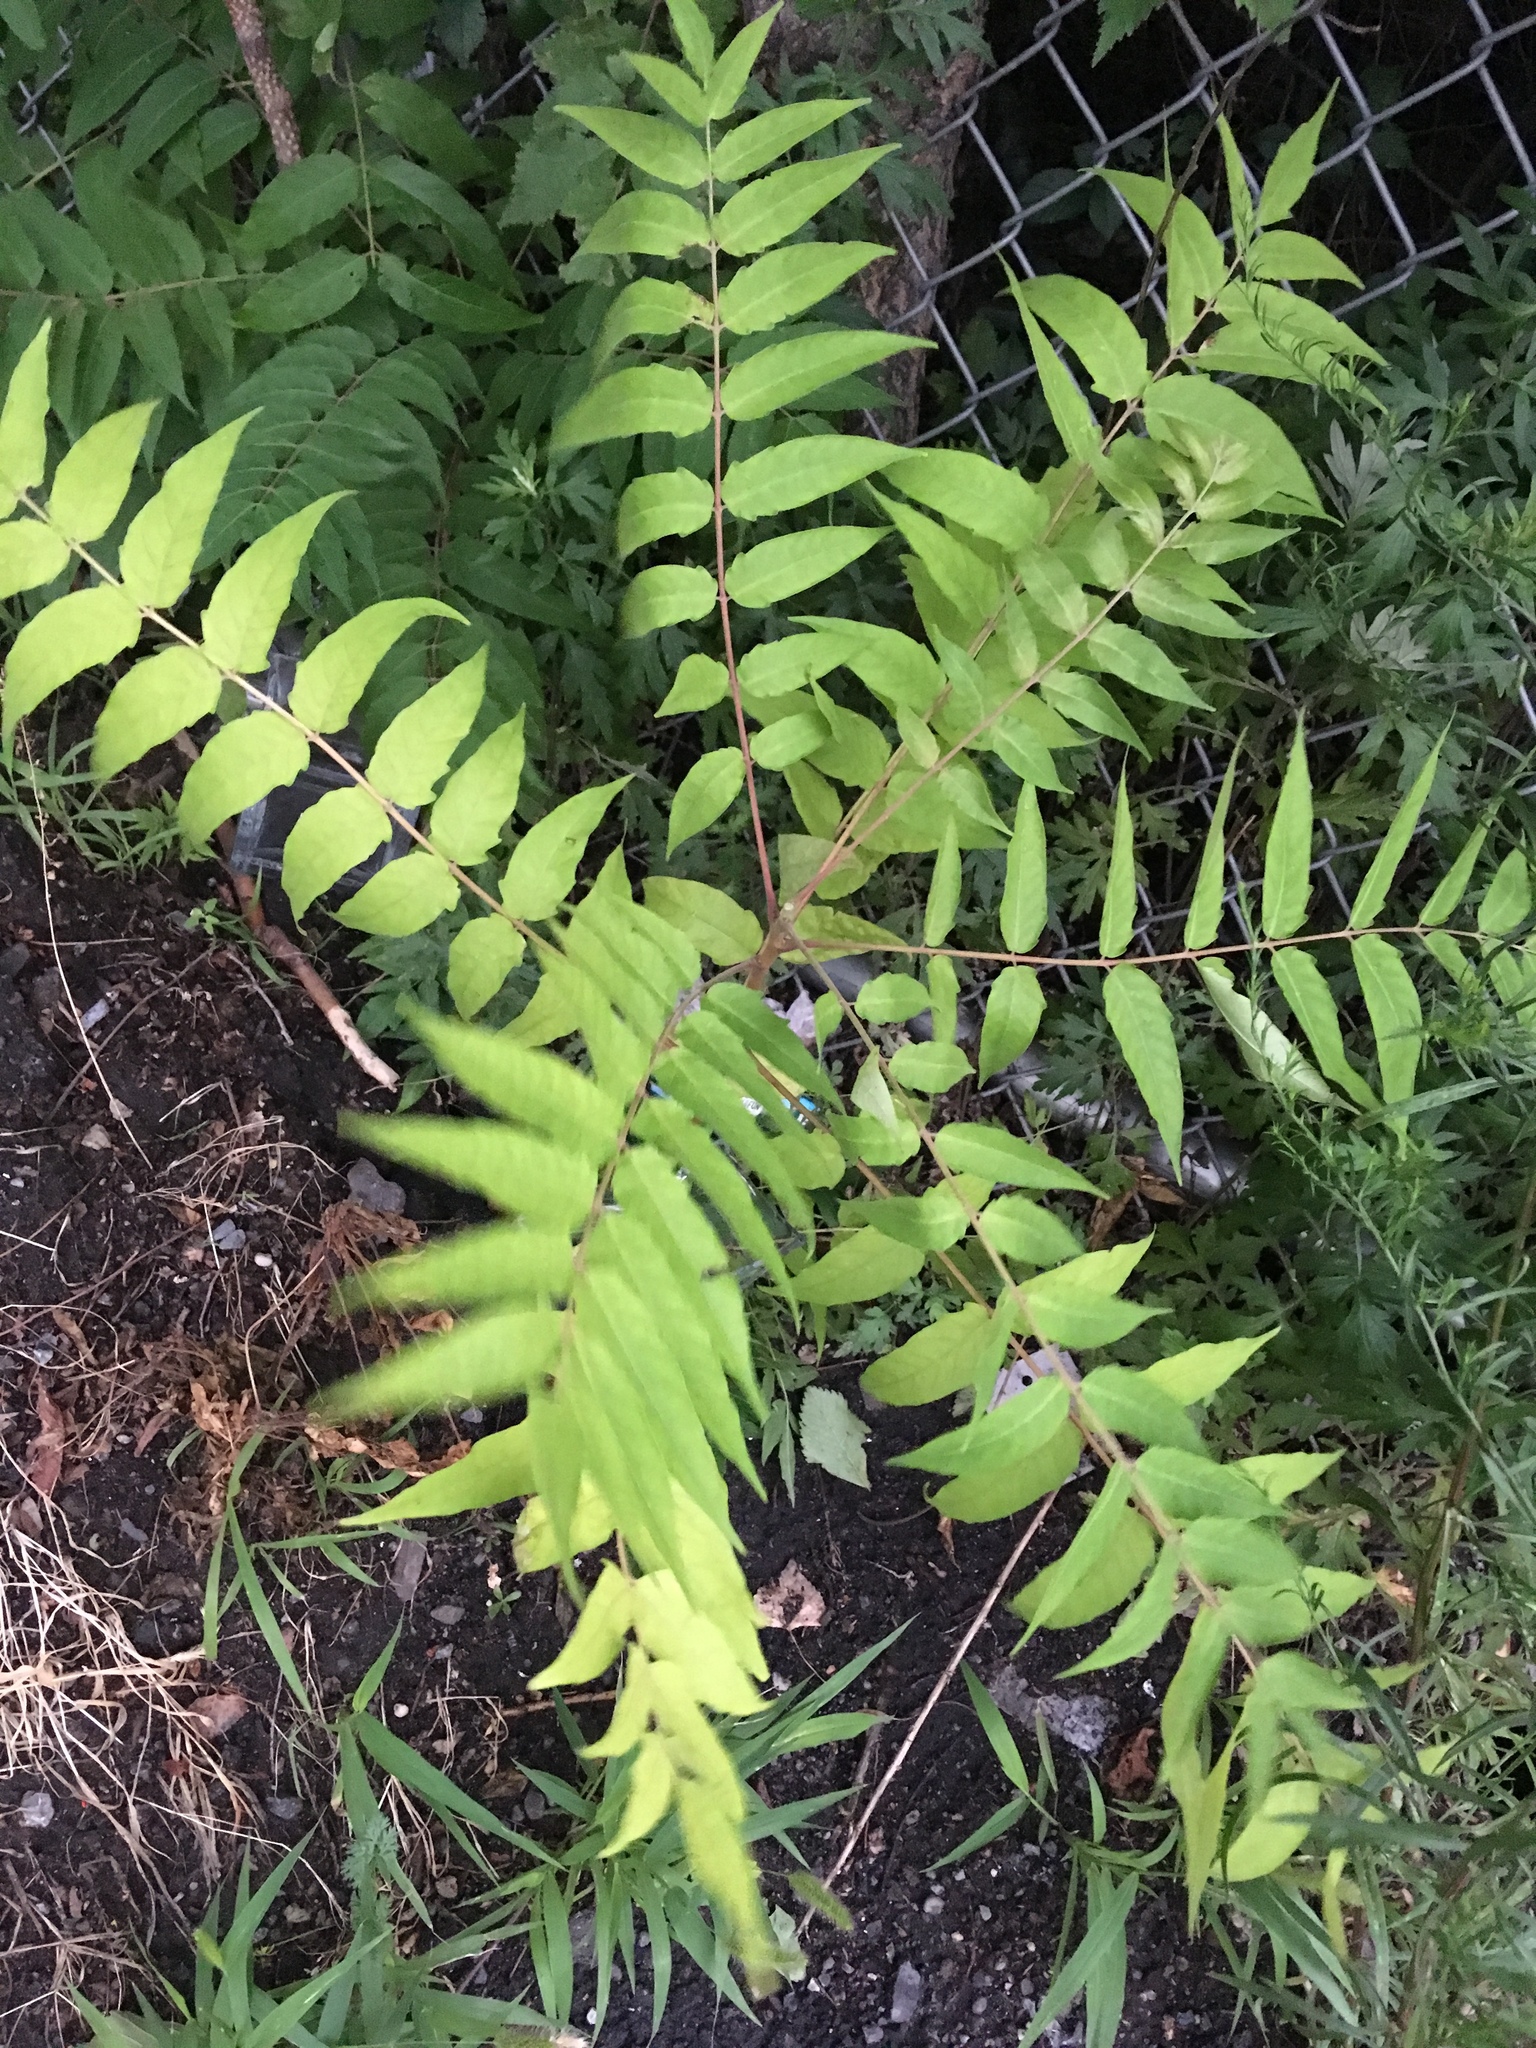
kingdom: Plantae
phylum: Tracheophyta
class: Magnoliopsida
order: Sapindales
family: Simaroubaceae
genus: Ailanthus
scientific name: Ailanthus altissima
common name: Tree-of-heaven
